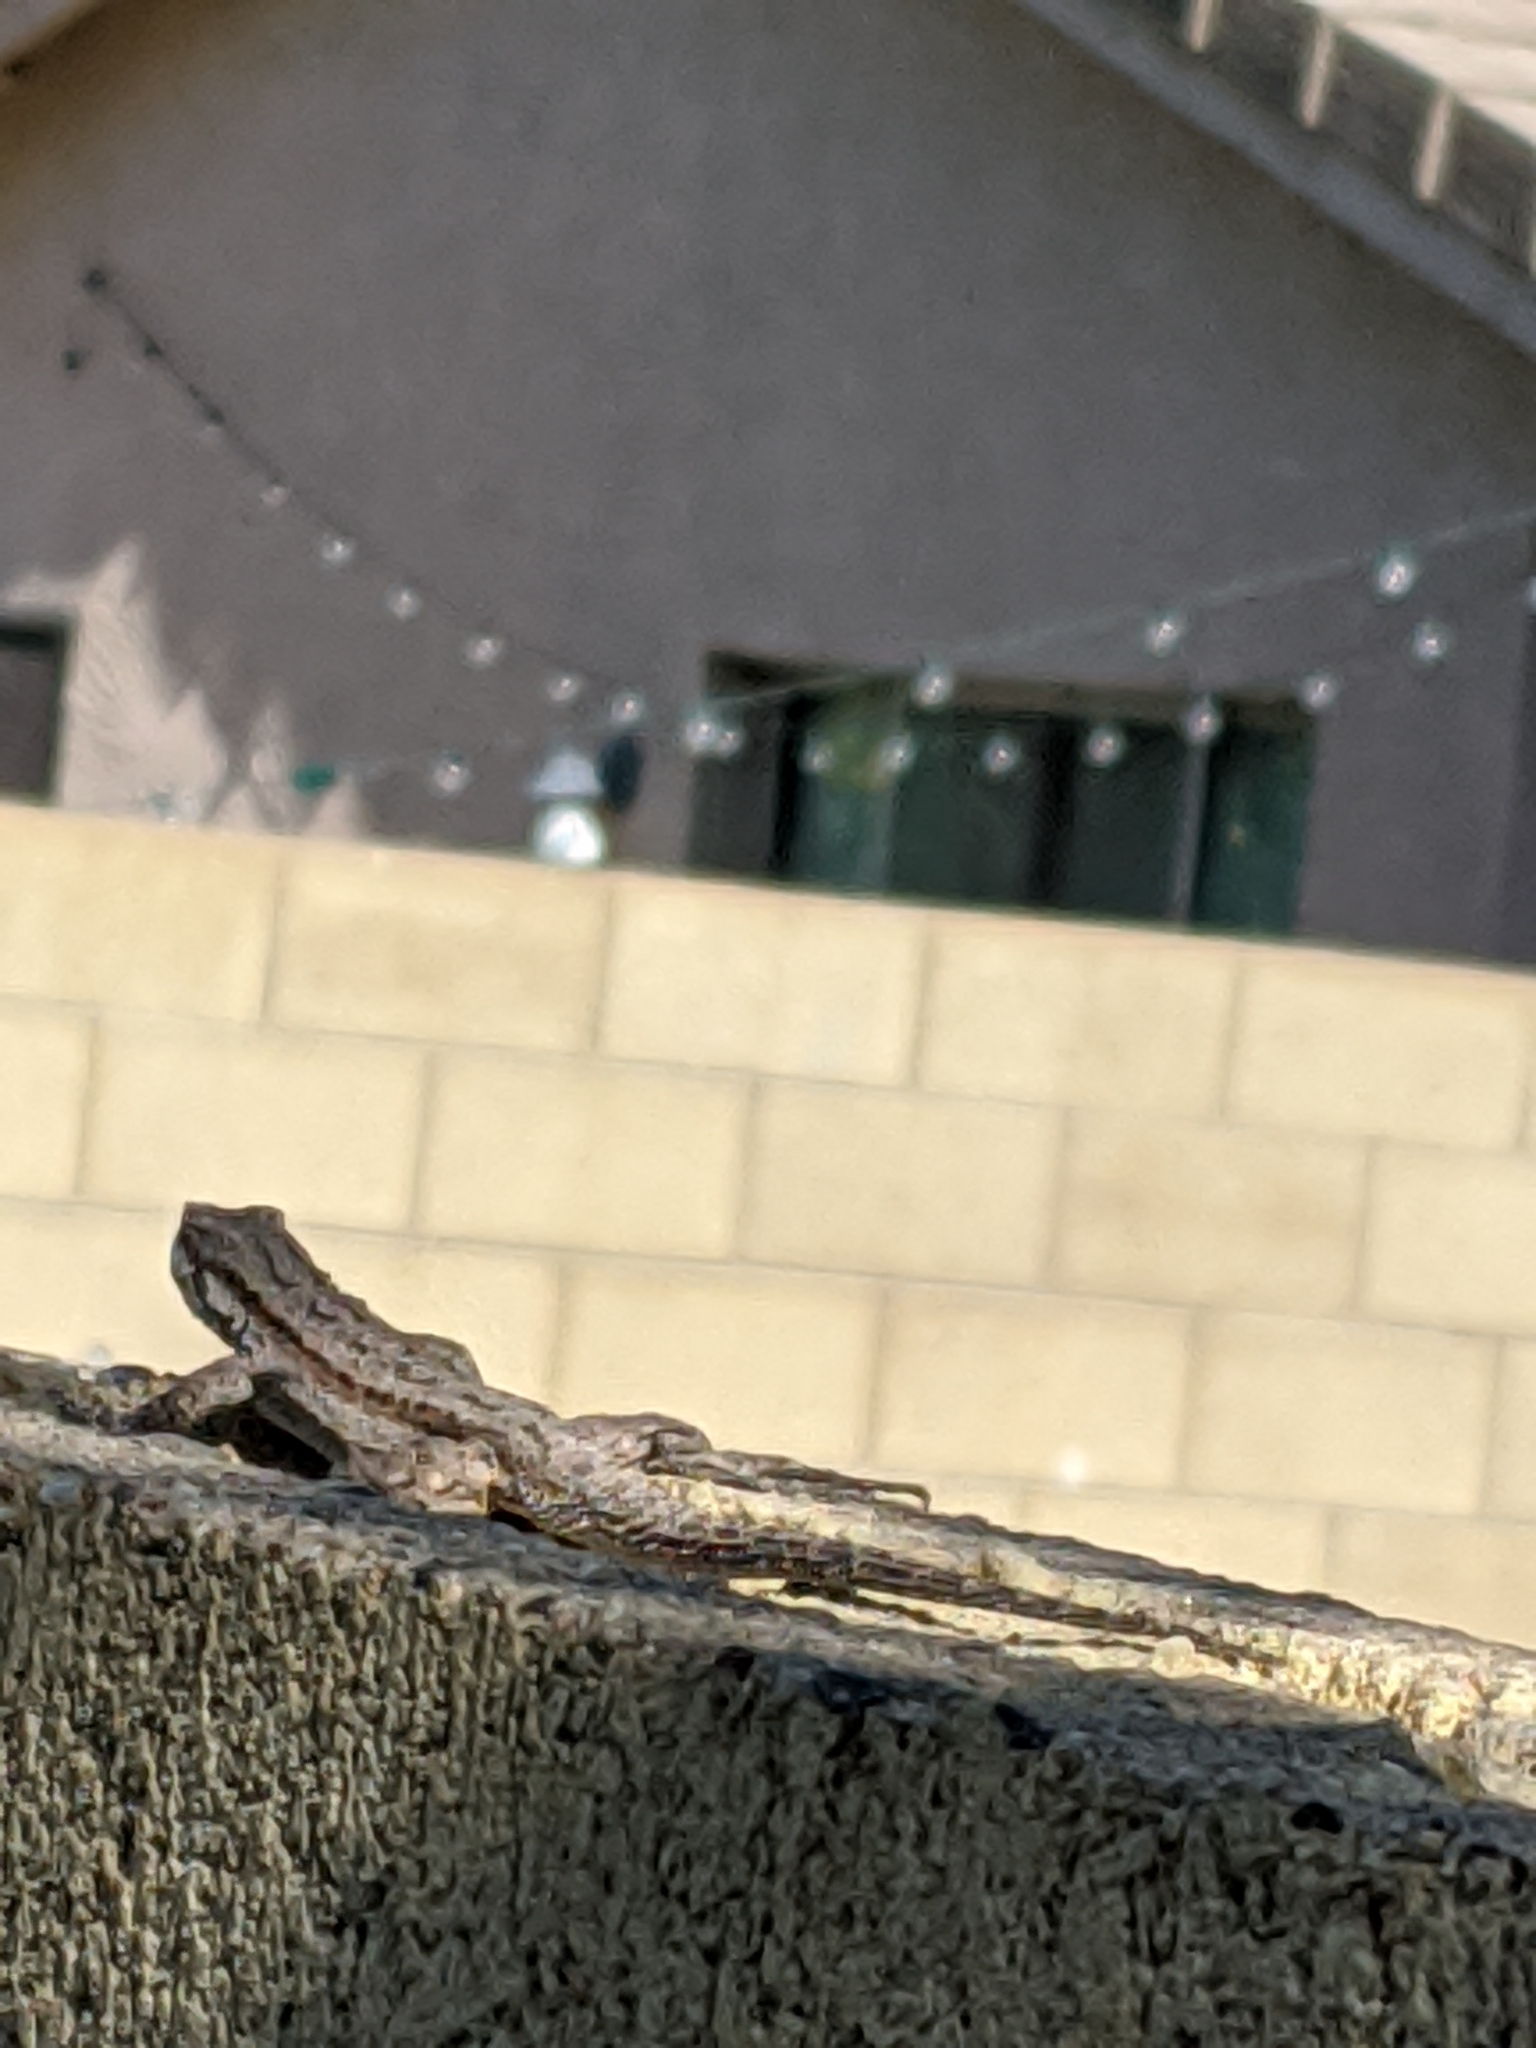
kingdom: Animalia
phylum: Chordata
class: Squamata
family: Phrynosomatidae
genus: Urosaurus
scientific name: Urosaurus ornatus
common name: Ornate tree lizard
